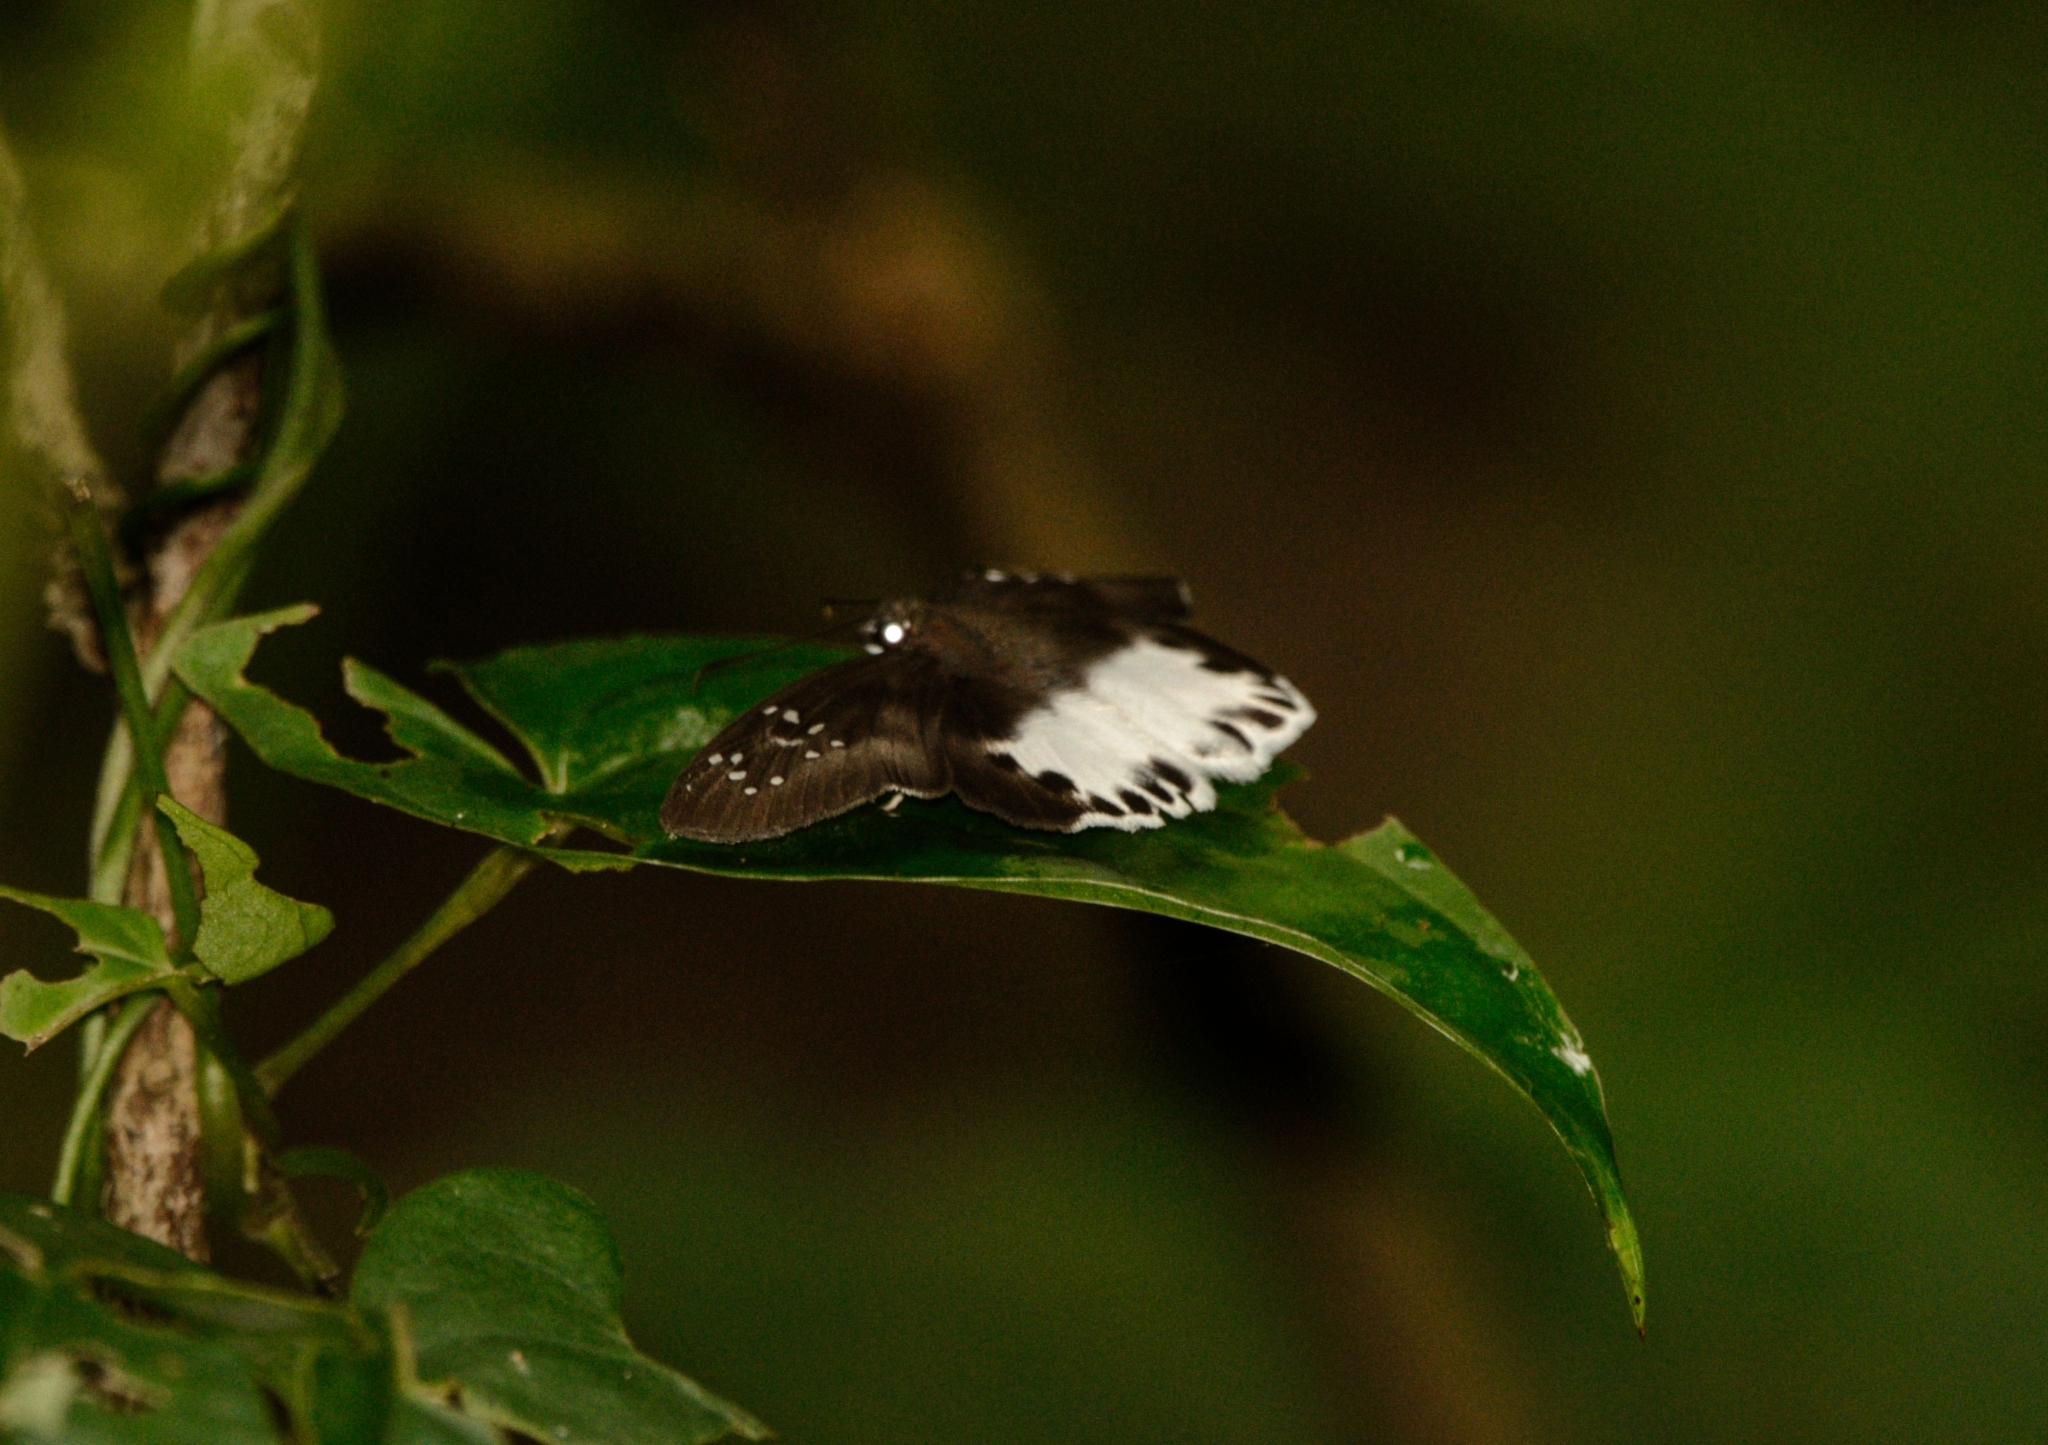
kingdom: Animalia
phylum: Arthropoda
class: Insecta
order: Lepidoptera
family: Hesperiidae
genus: Tagiades
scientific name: Tagiades litigiosa
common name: Water snow flat
